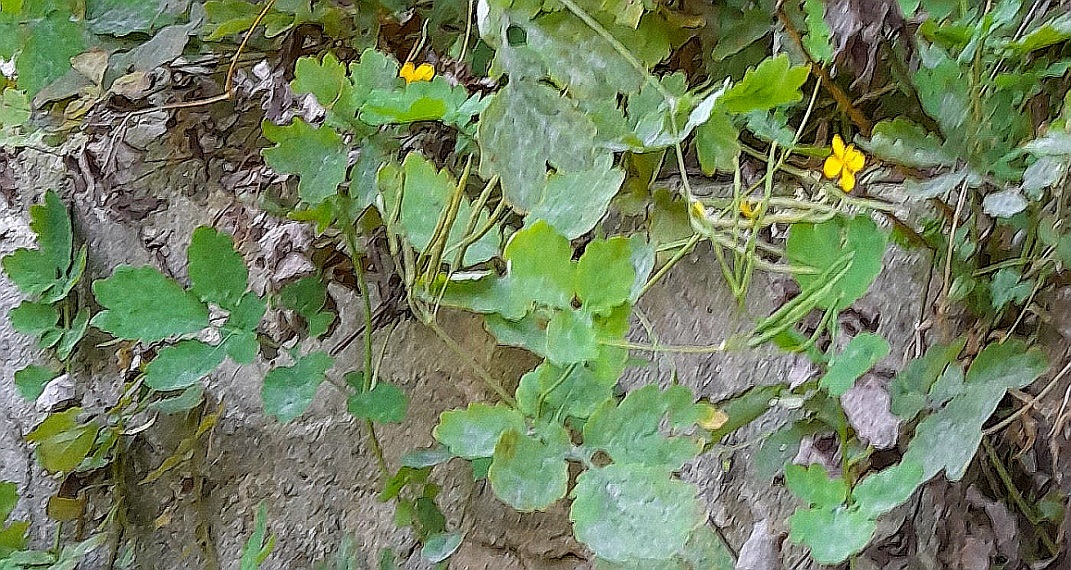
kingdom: Plantae
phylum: Tracheophyta
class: Magnoliopsida
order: Ranunculales
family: Papaveraceae
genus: Chelidonium
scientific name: Chelidonium majus
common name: Greater celandine
